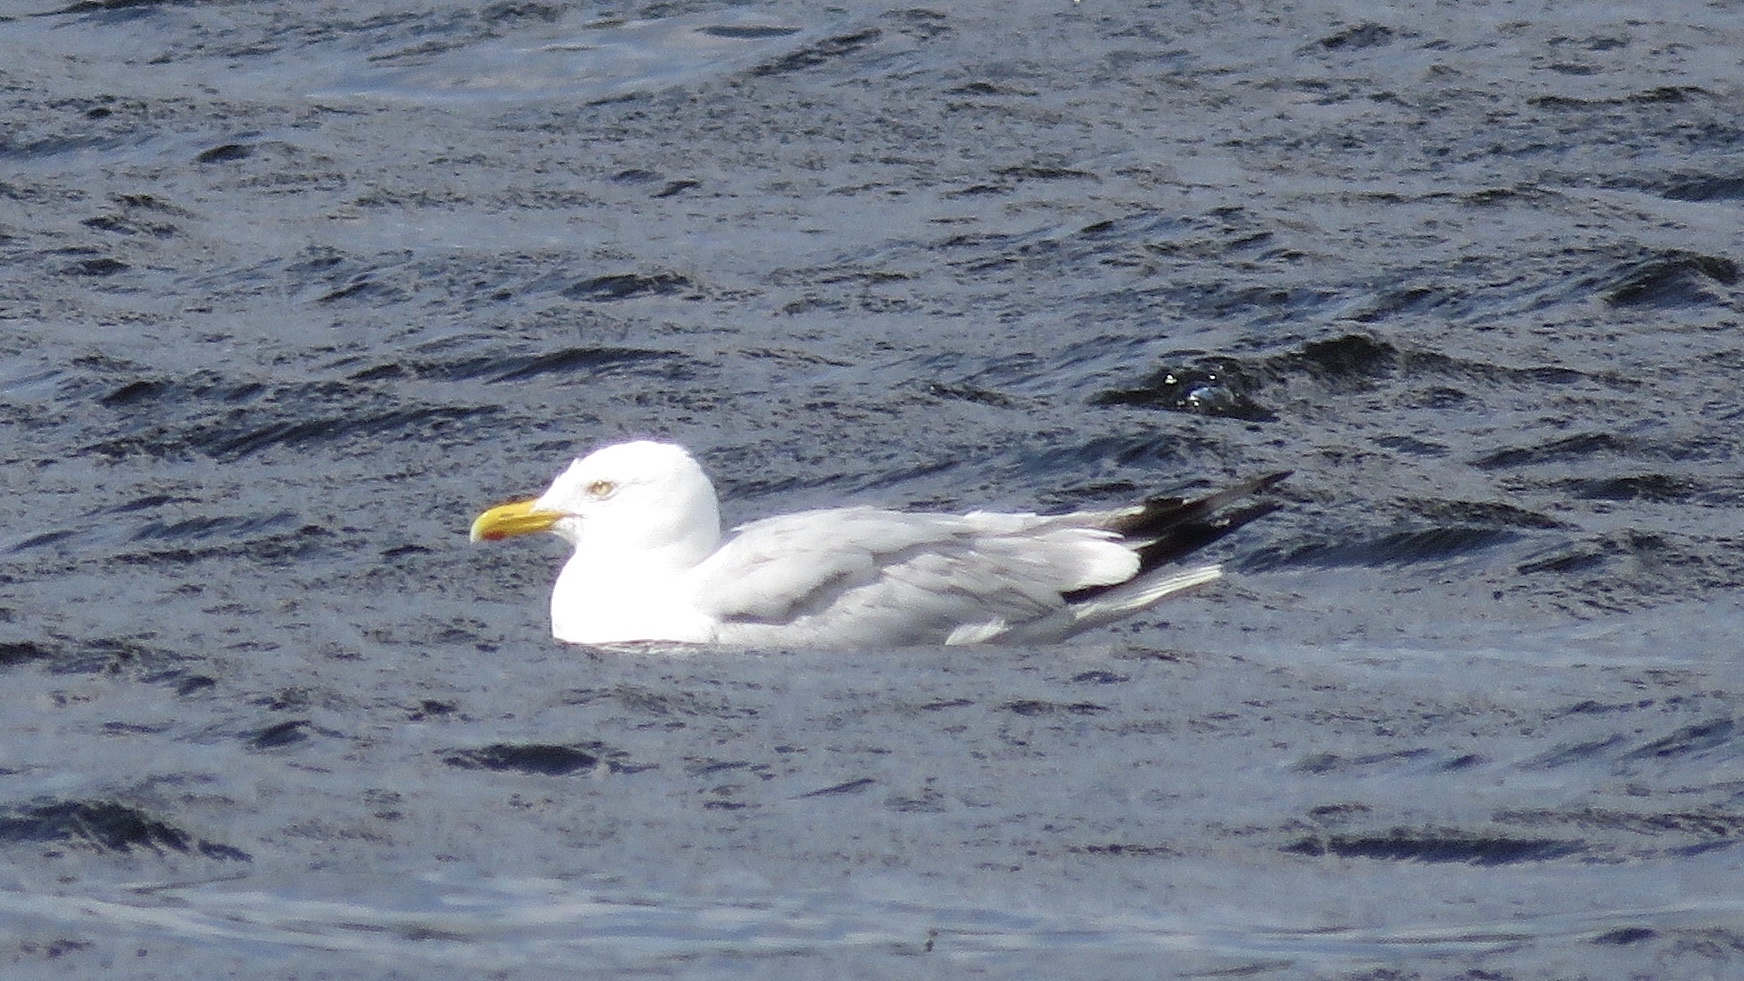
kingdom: Animalia
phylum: Chordata
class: Aves
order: Charadriiformes
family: Laridae
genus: Larus
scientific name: Larus argentatus
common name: Herring gull
